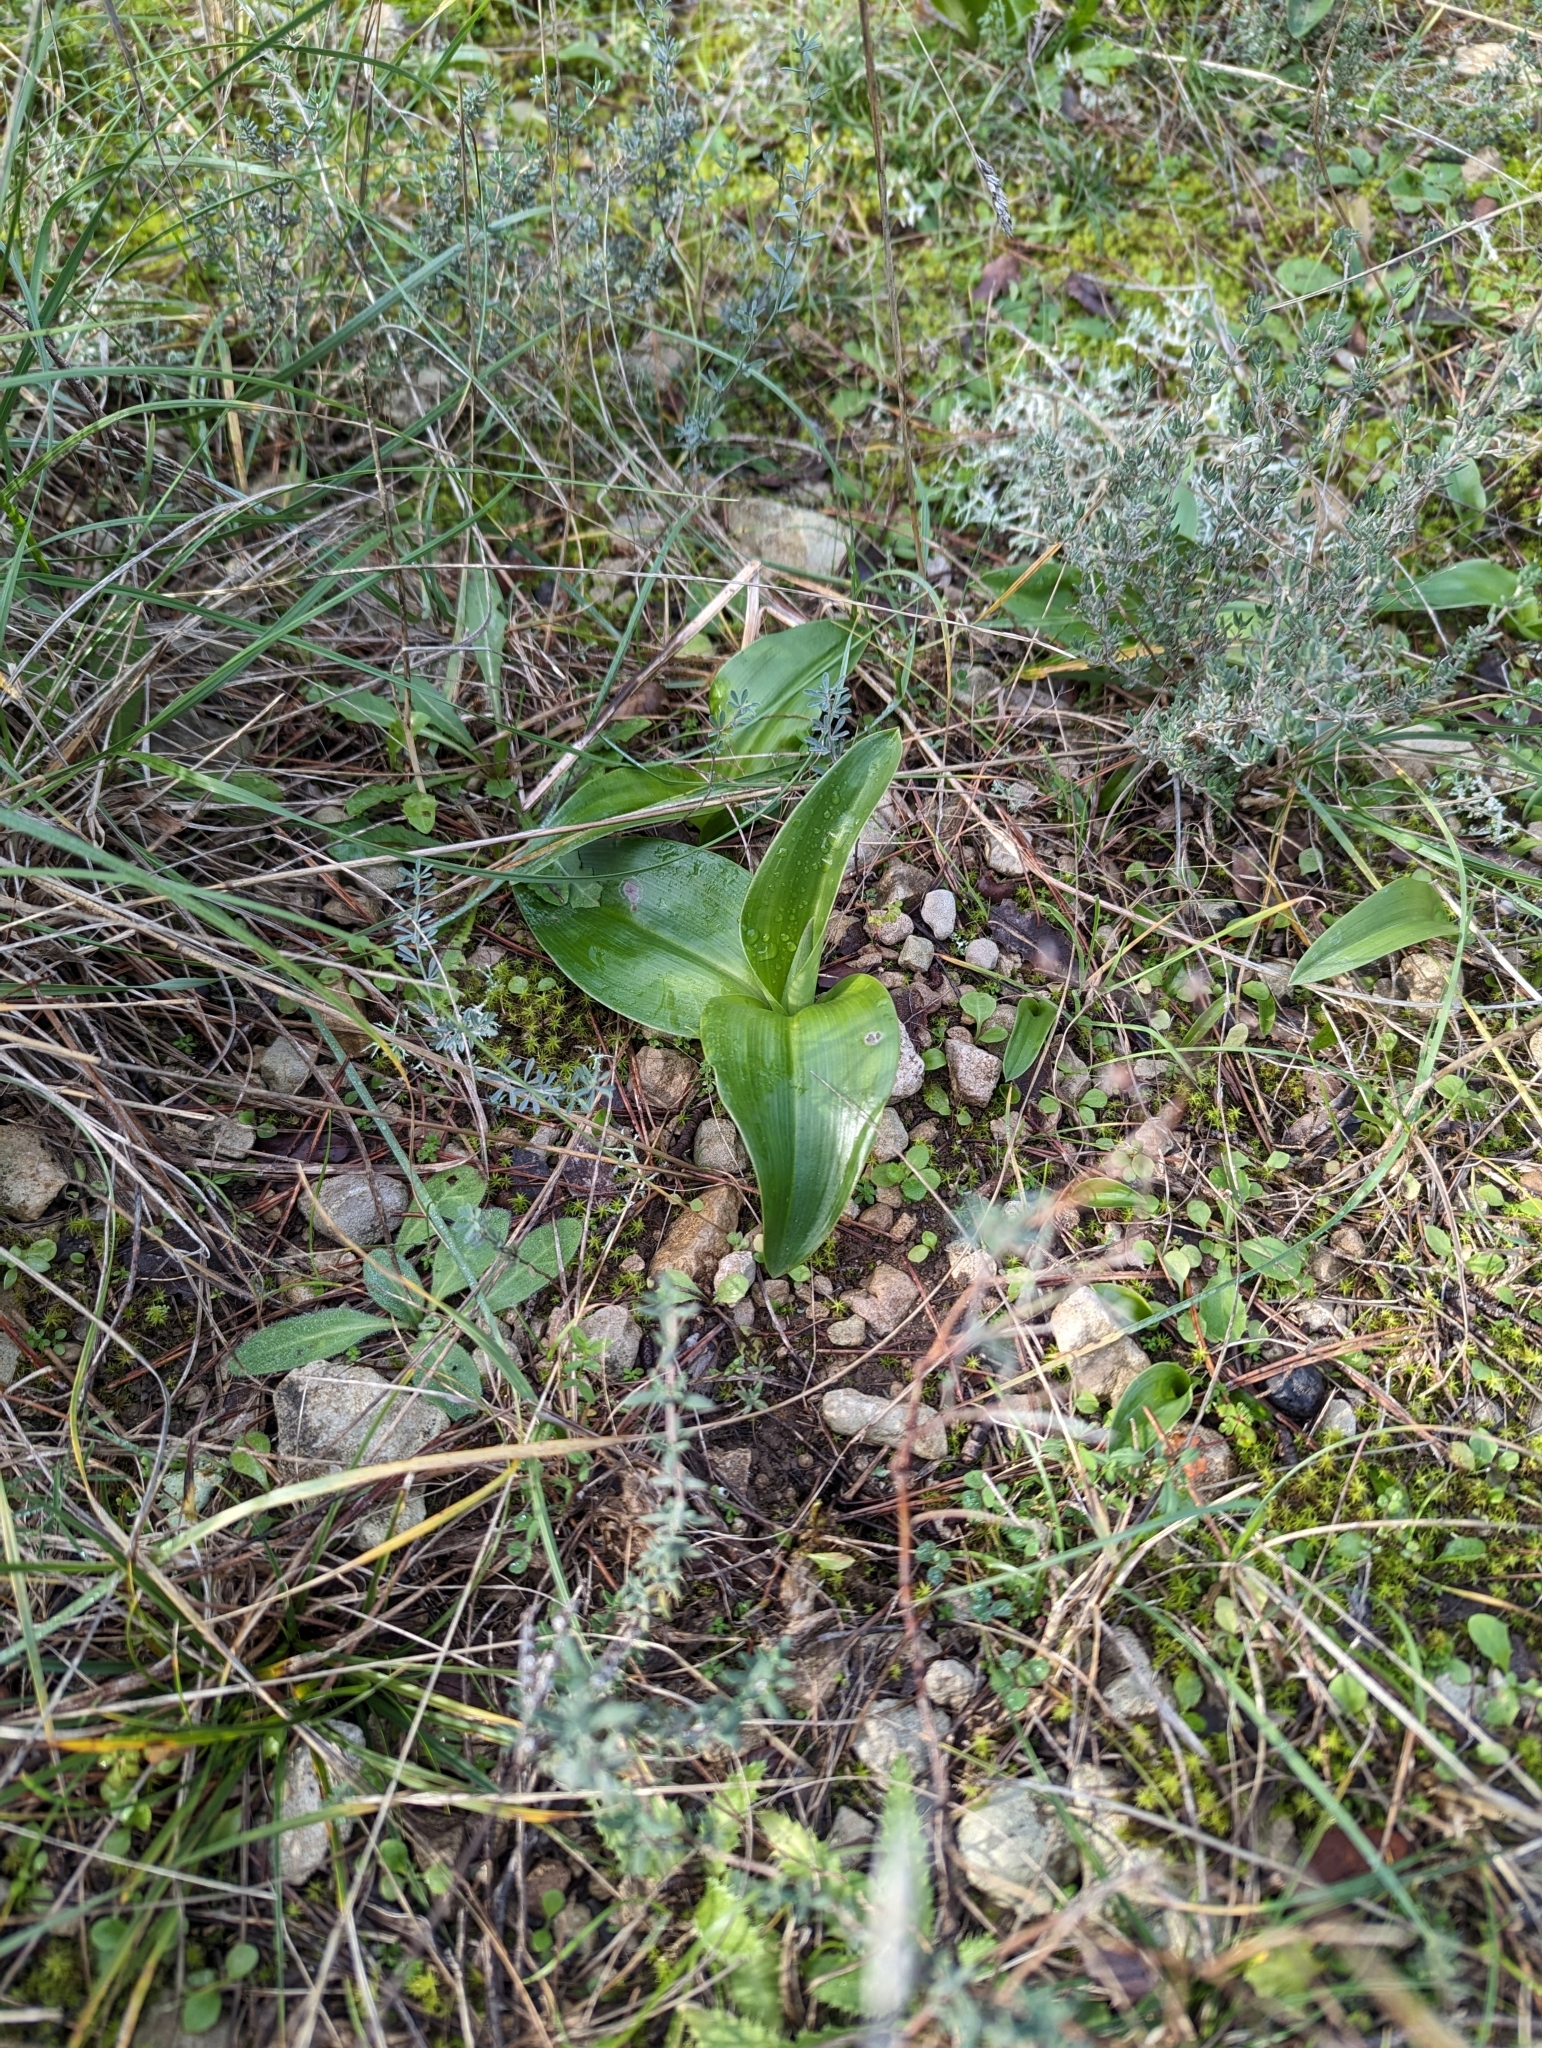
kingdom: Plantae
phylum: Tracheophyta
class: Liliopsida
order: Asparagales
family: Orchidaceae
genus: Himantoglossum
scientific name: Himantoglossum robertianum
